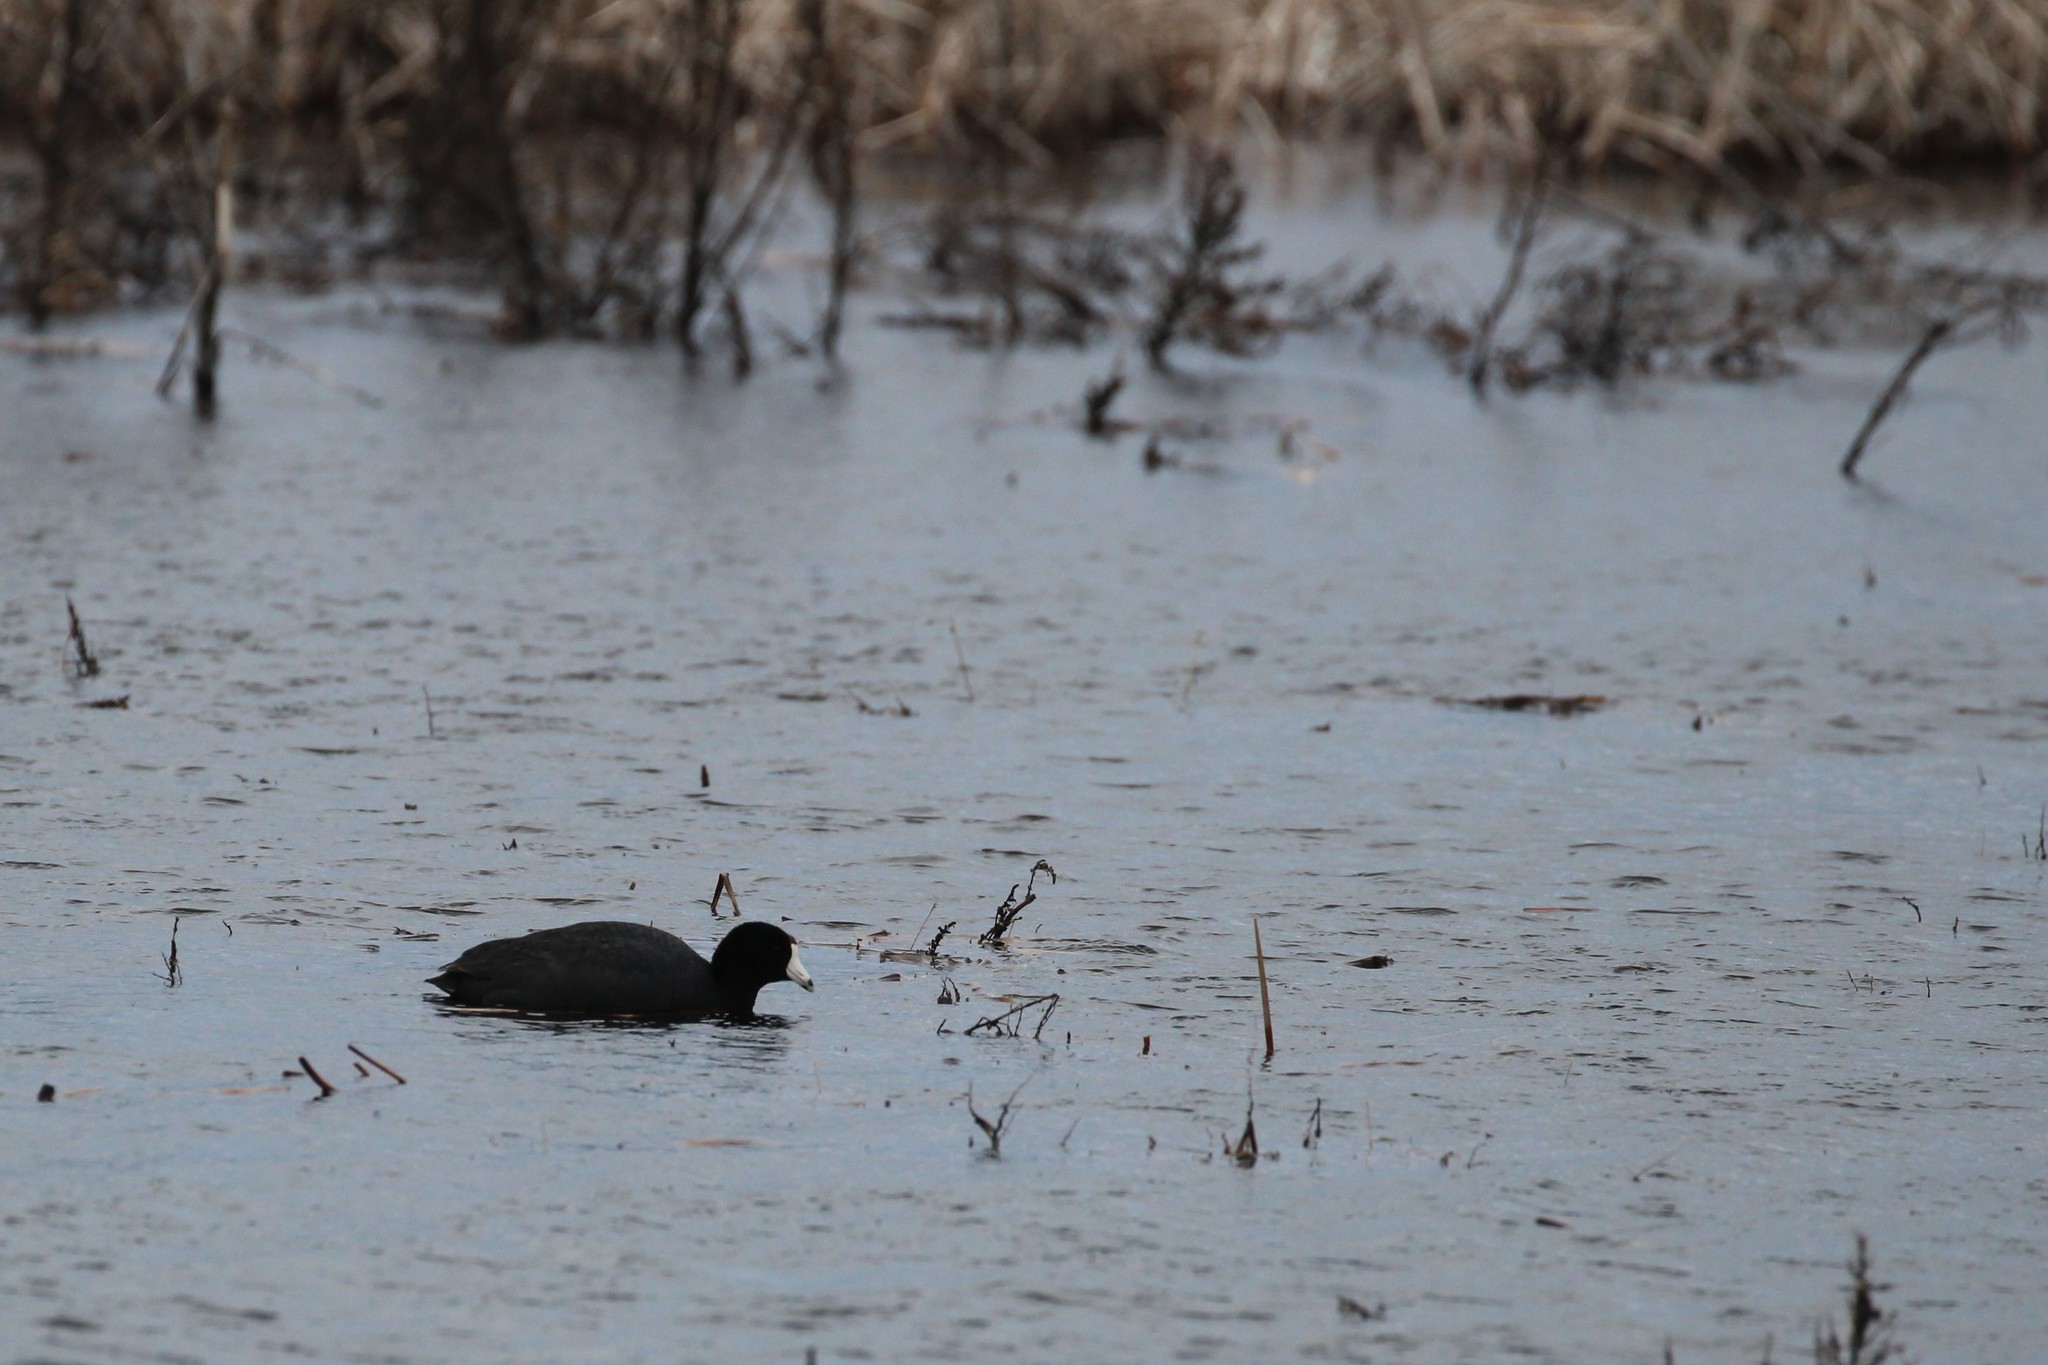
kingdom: Animalia
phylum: Chordata
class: Aves
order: Gruiformes
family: Rallidae
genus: Fulica
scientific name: Fulica americana
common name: American coot
